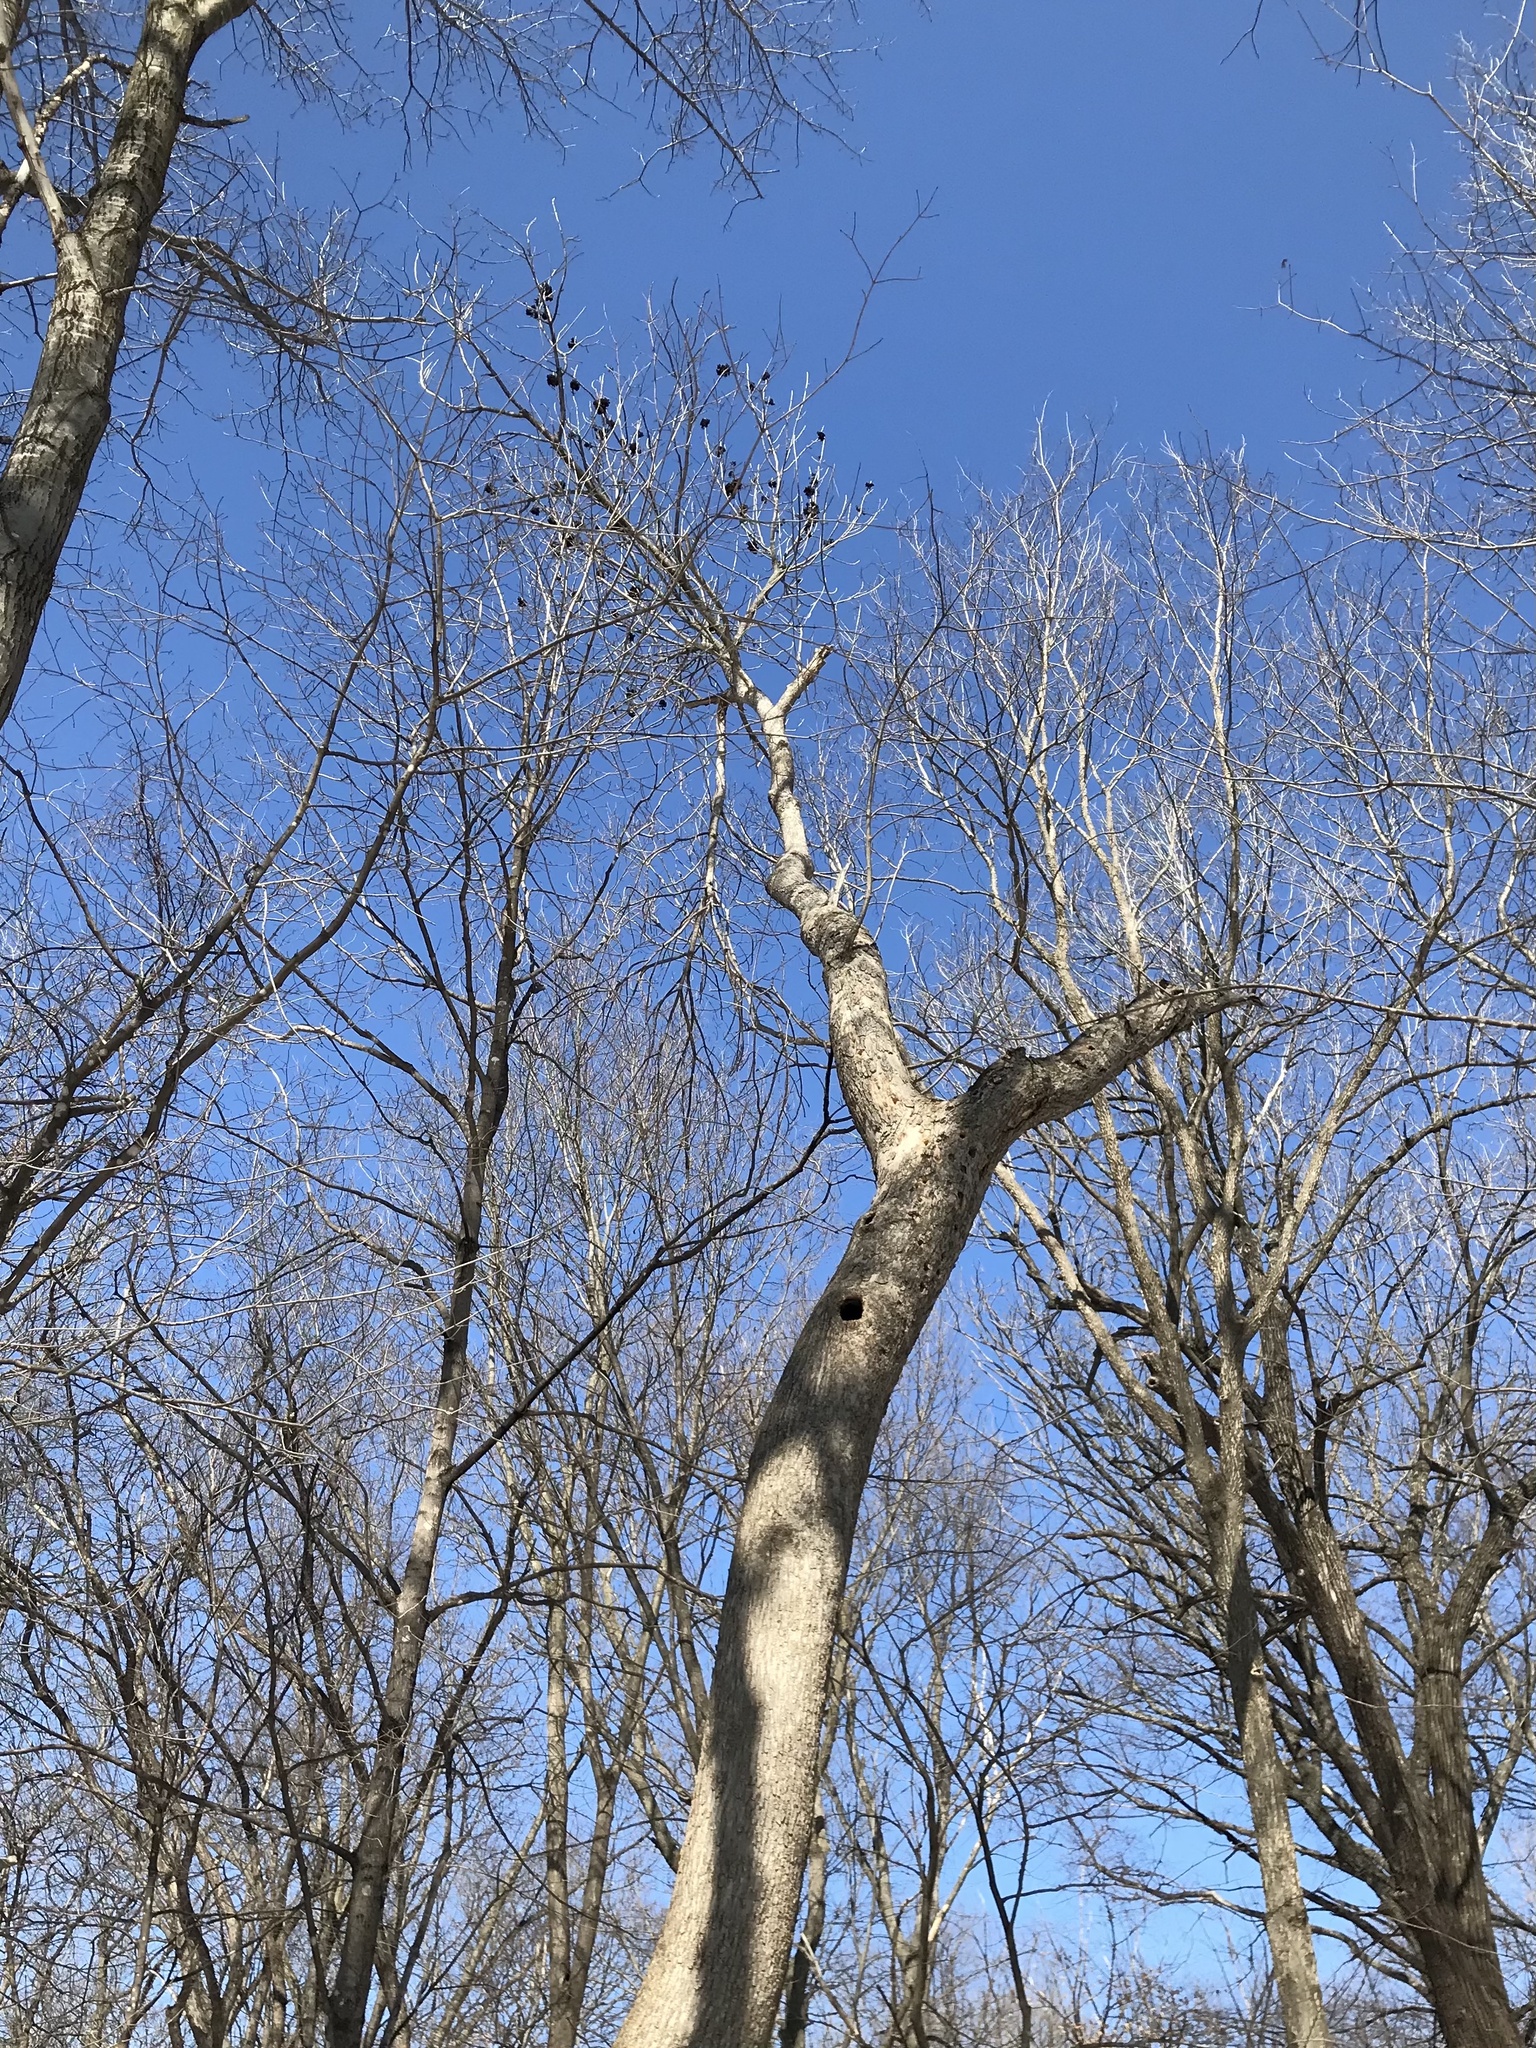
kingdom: Plantae
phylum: Tracheophyta
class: Magnoliopsida
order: Lamiales
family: Oleaceae
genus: Fraxinus
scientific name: Fraxinus nigra
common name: Black ash
